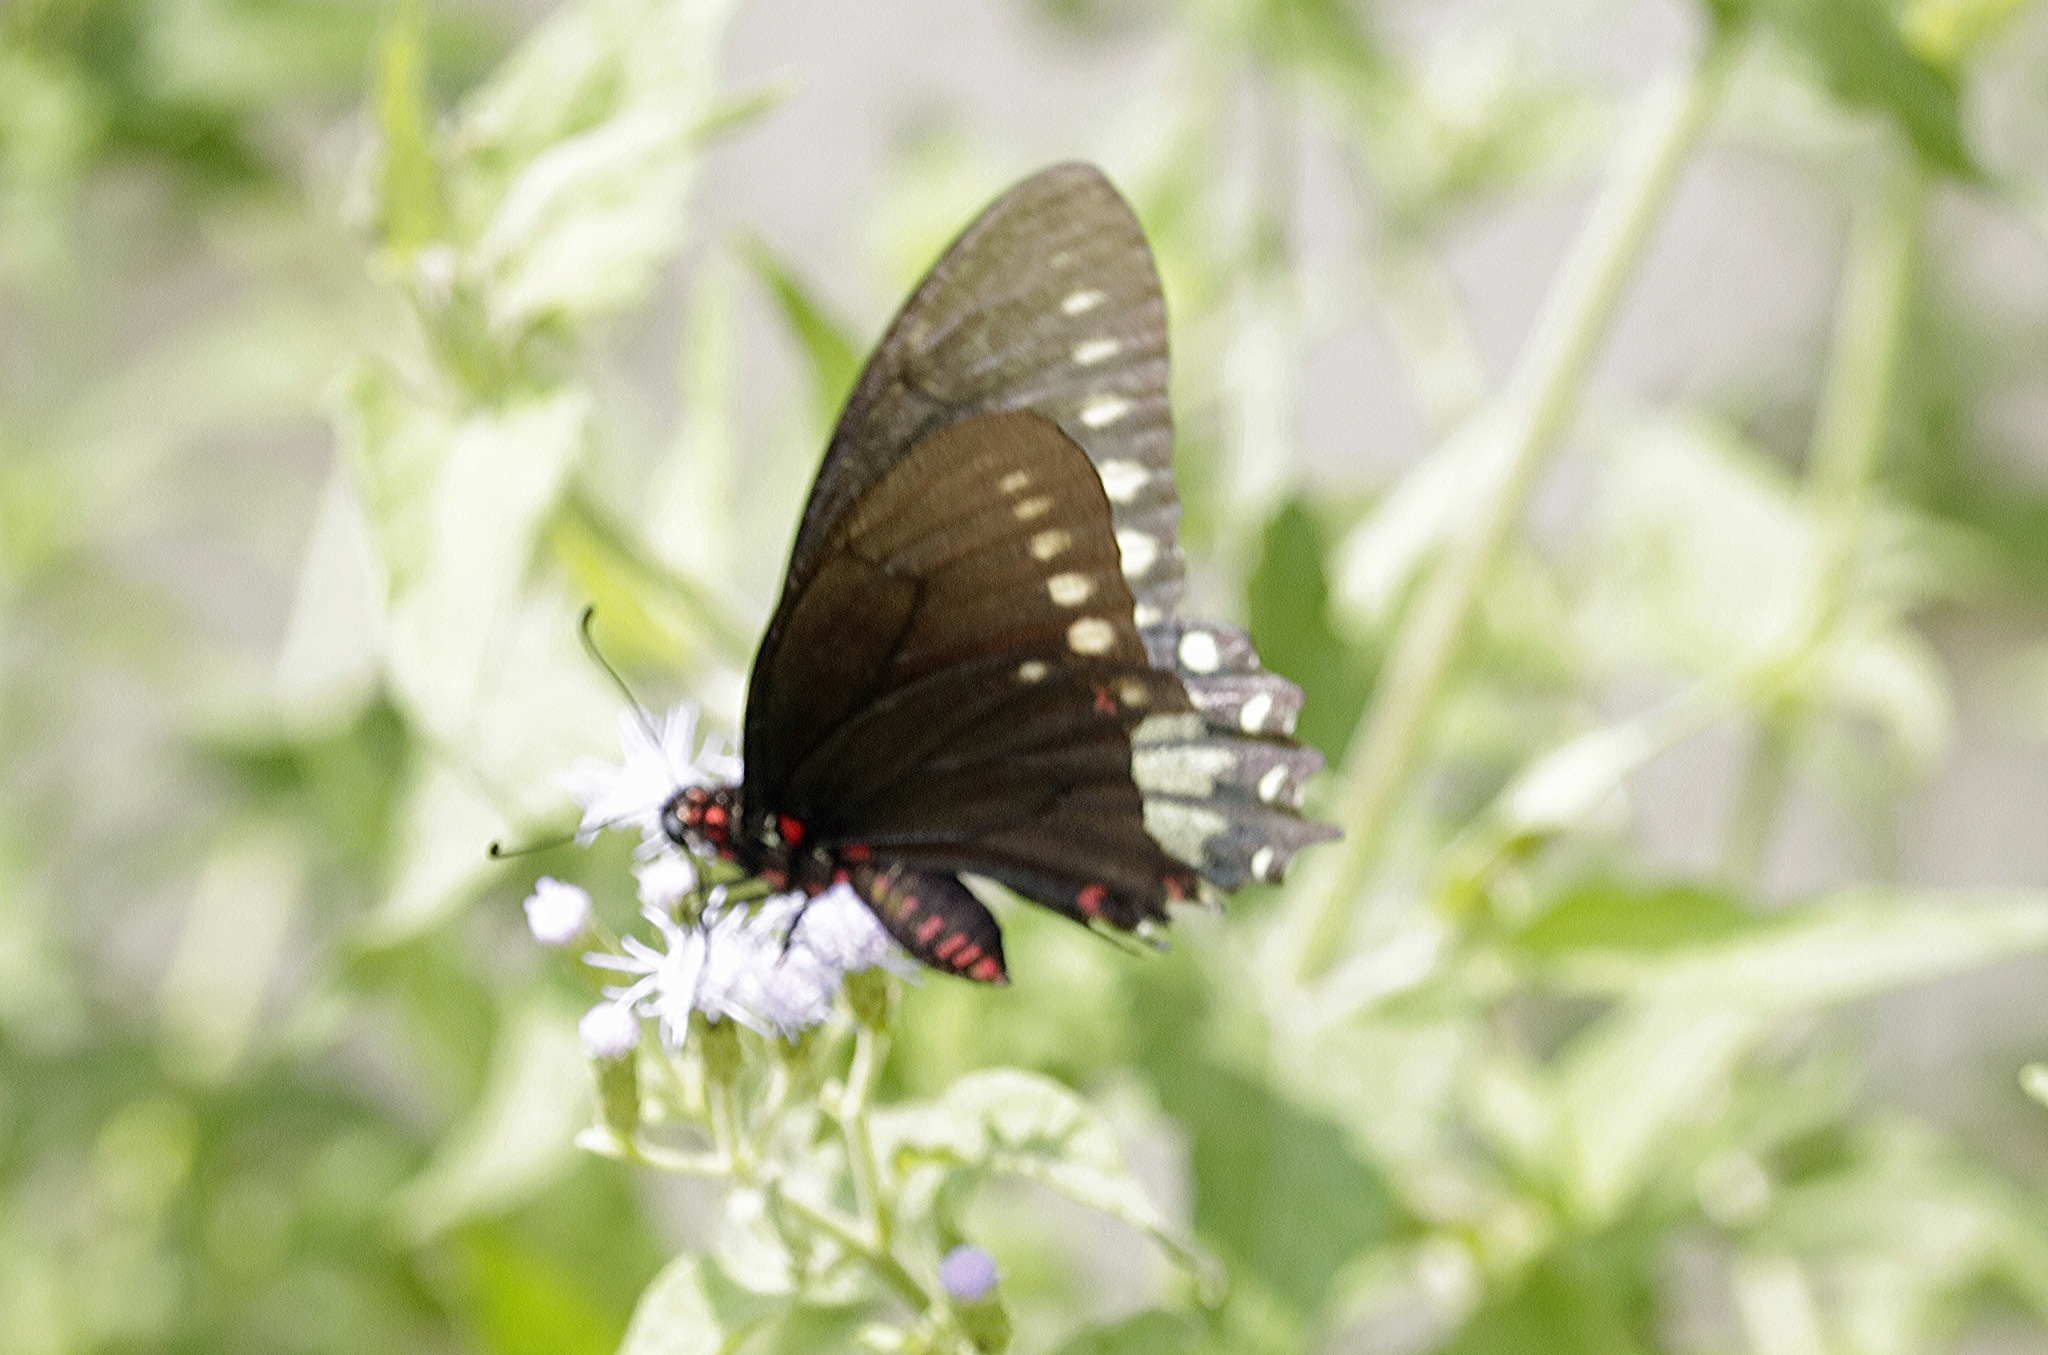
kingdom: Animalia
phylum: Arthropoda
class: Insecta
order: Lepidoptera
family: Papilionidae
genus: Mimoides
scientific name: Mimoides phaon
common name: Variable swallowtail
